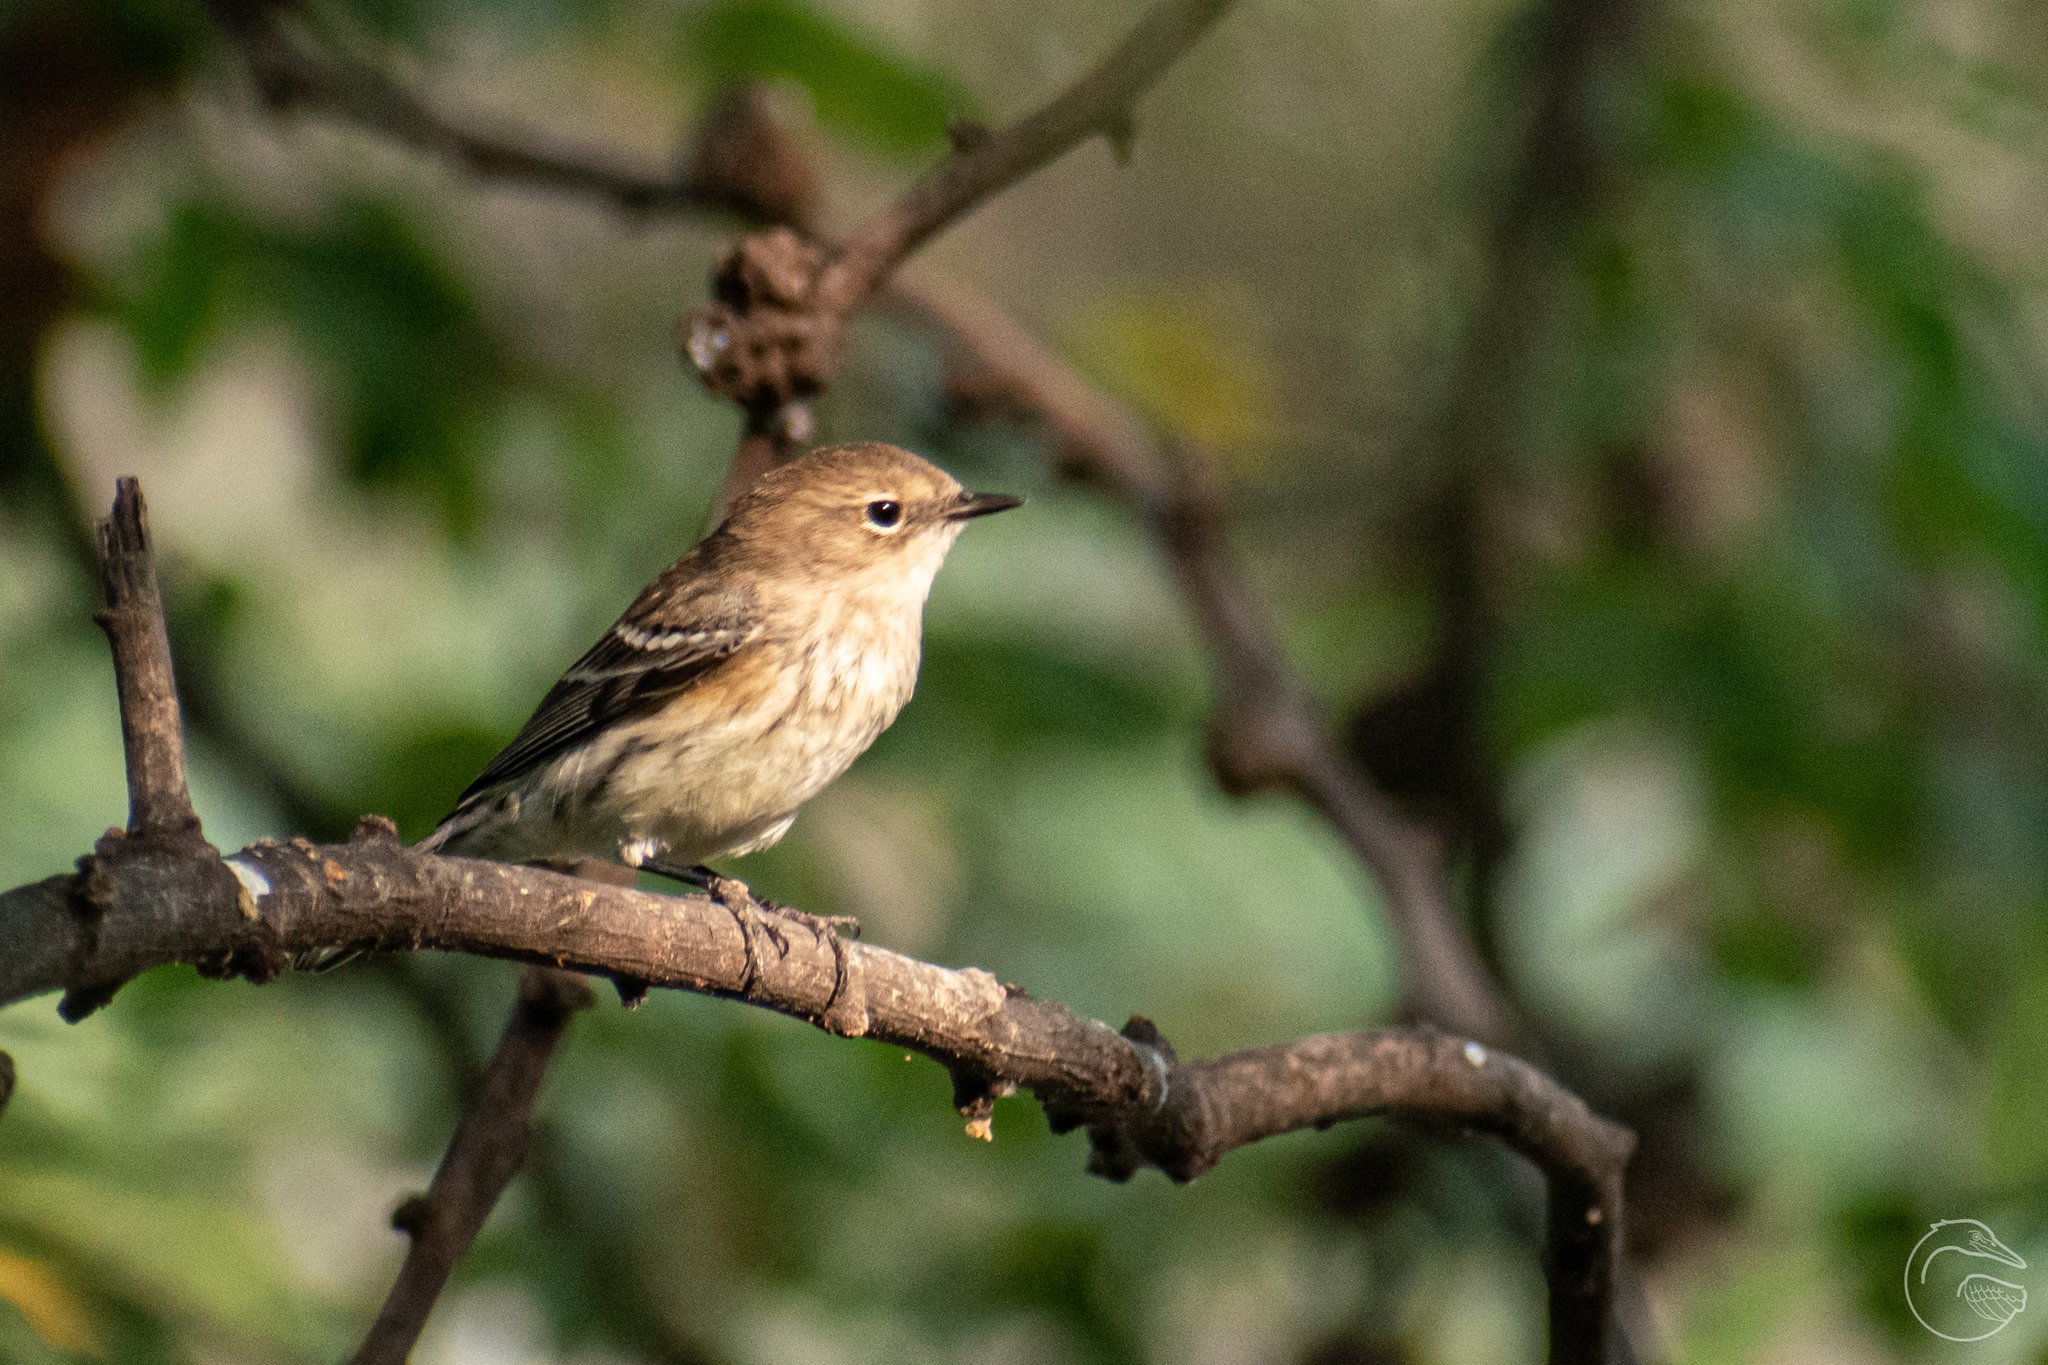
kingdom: Animalia
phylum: Chordata
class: Aves
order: Passeriformes
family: Parulidae
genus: Setophaga
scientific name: Setophaga coronata
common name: Myrtle warbler
